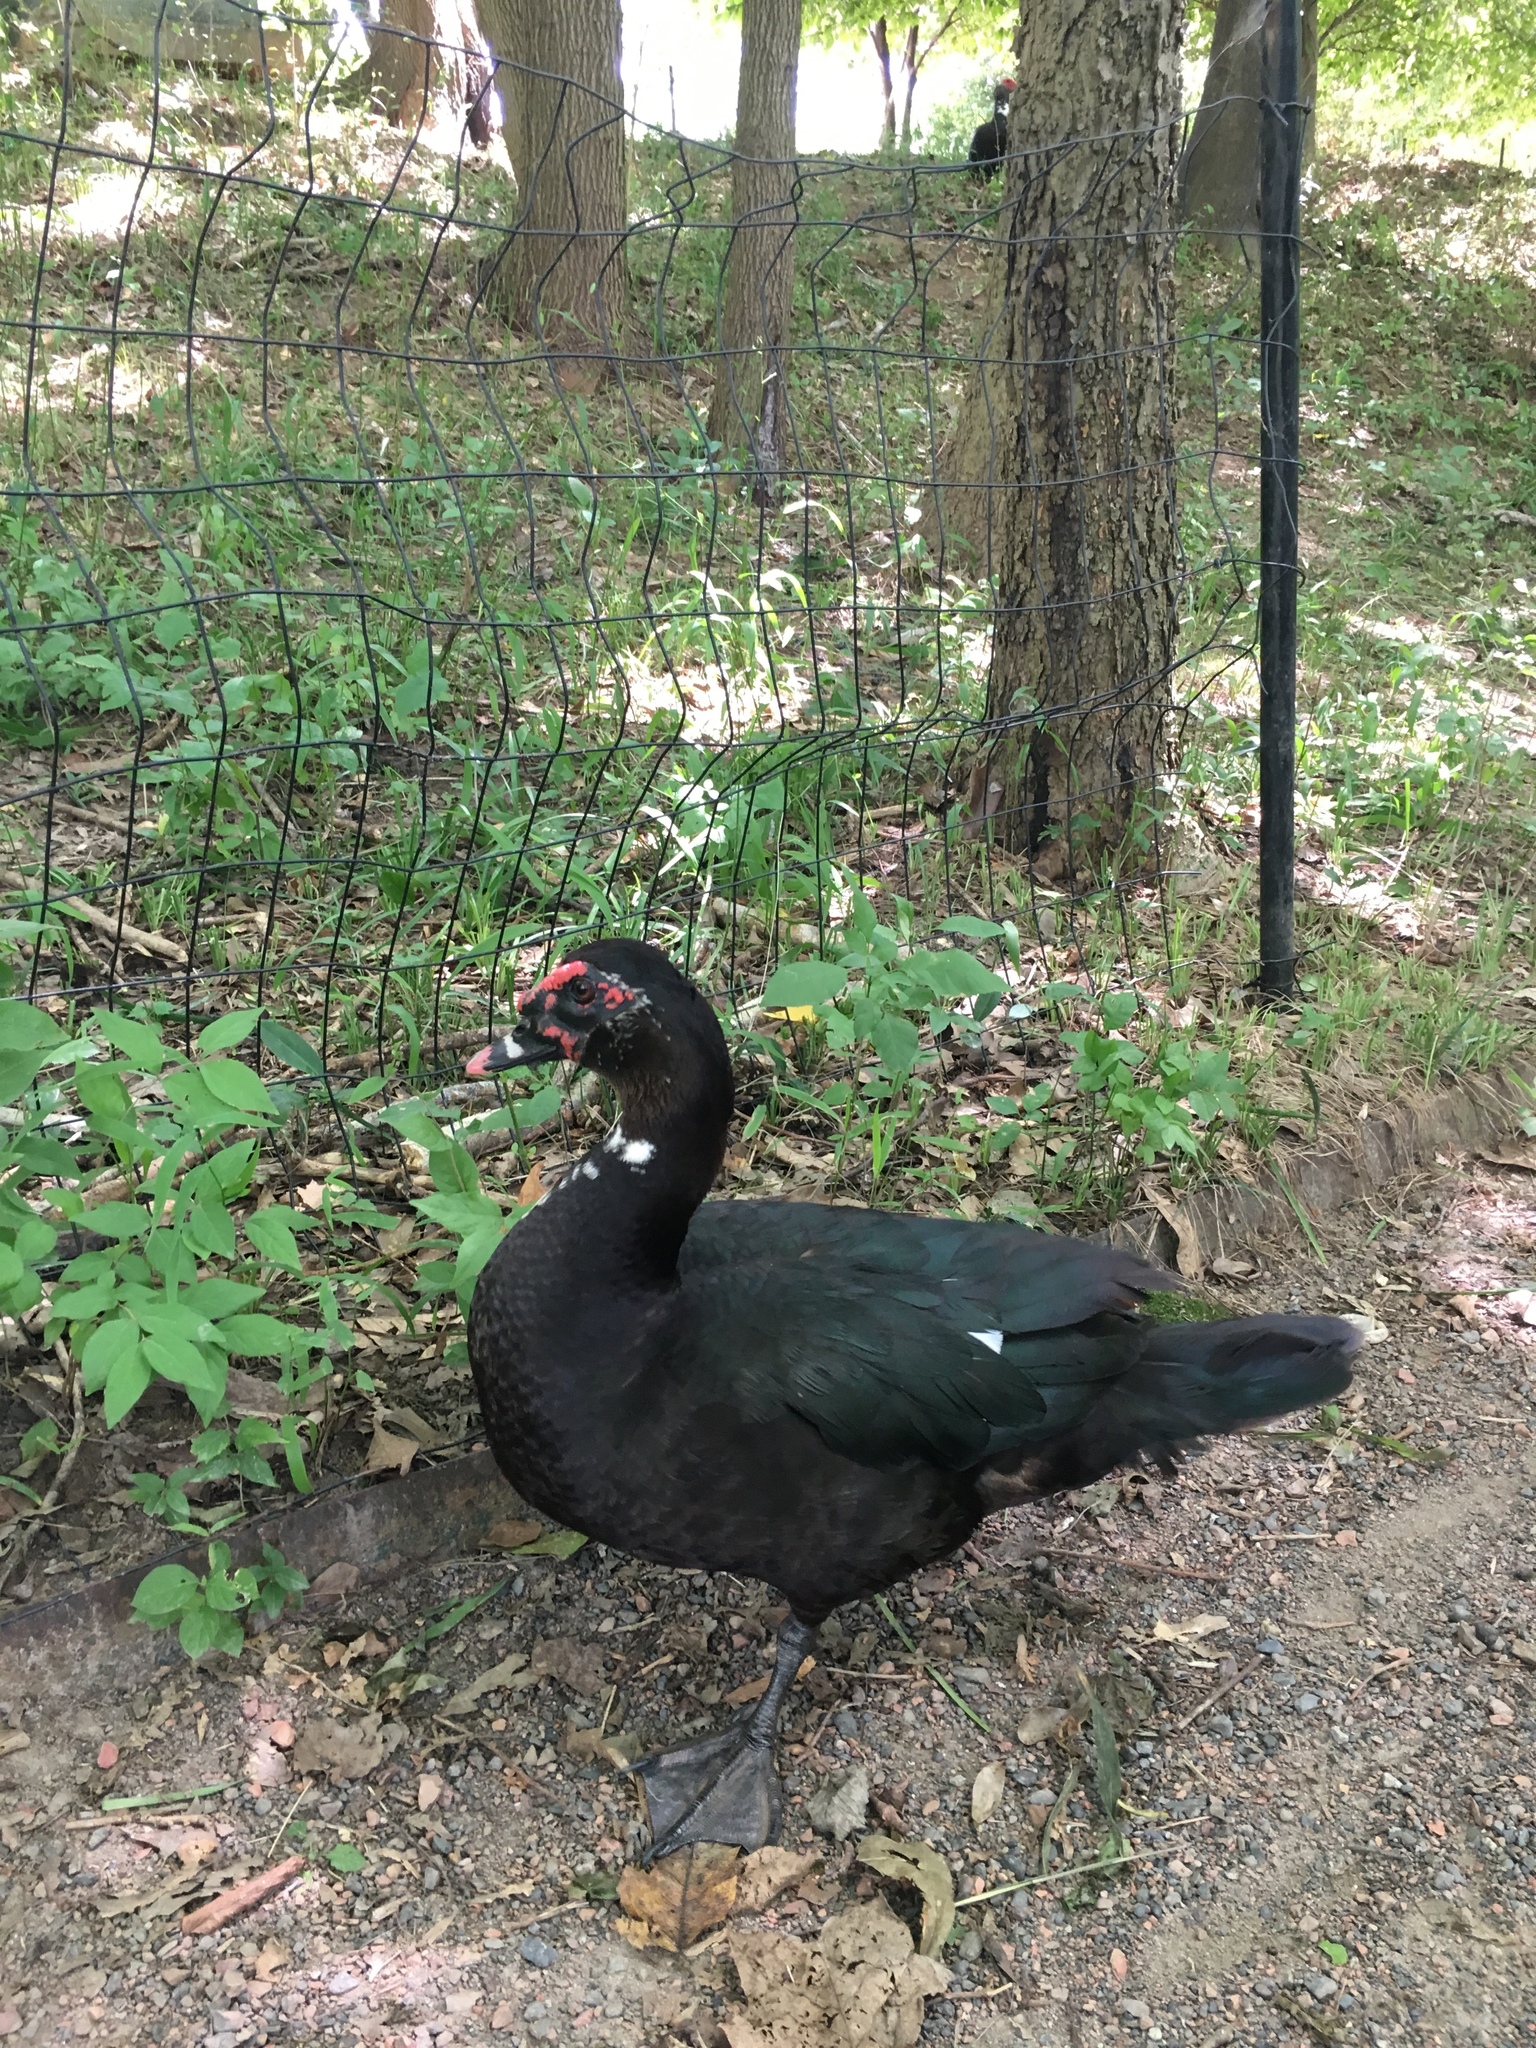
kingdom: Animalia
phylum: Chordata
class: Aves
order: Anseriformes
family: Anatidae
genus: Cairina
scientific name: Cairina moschata
